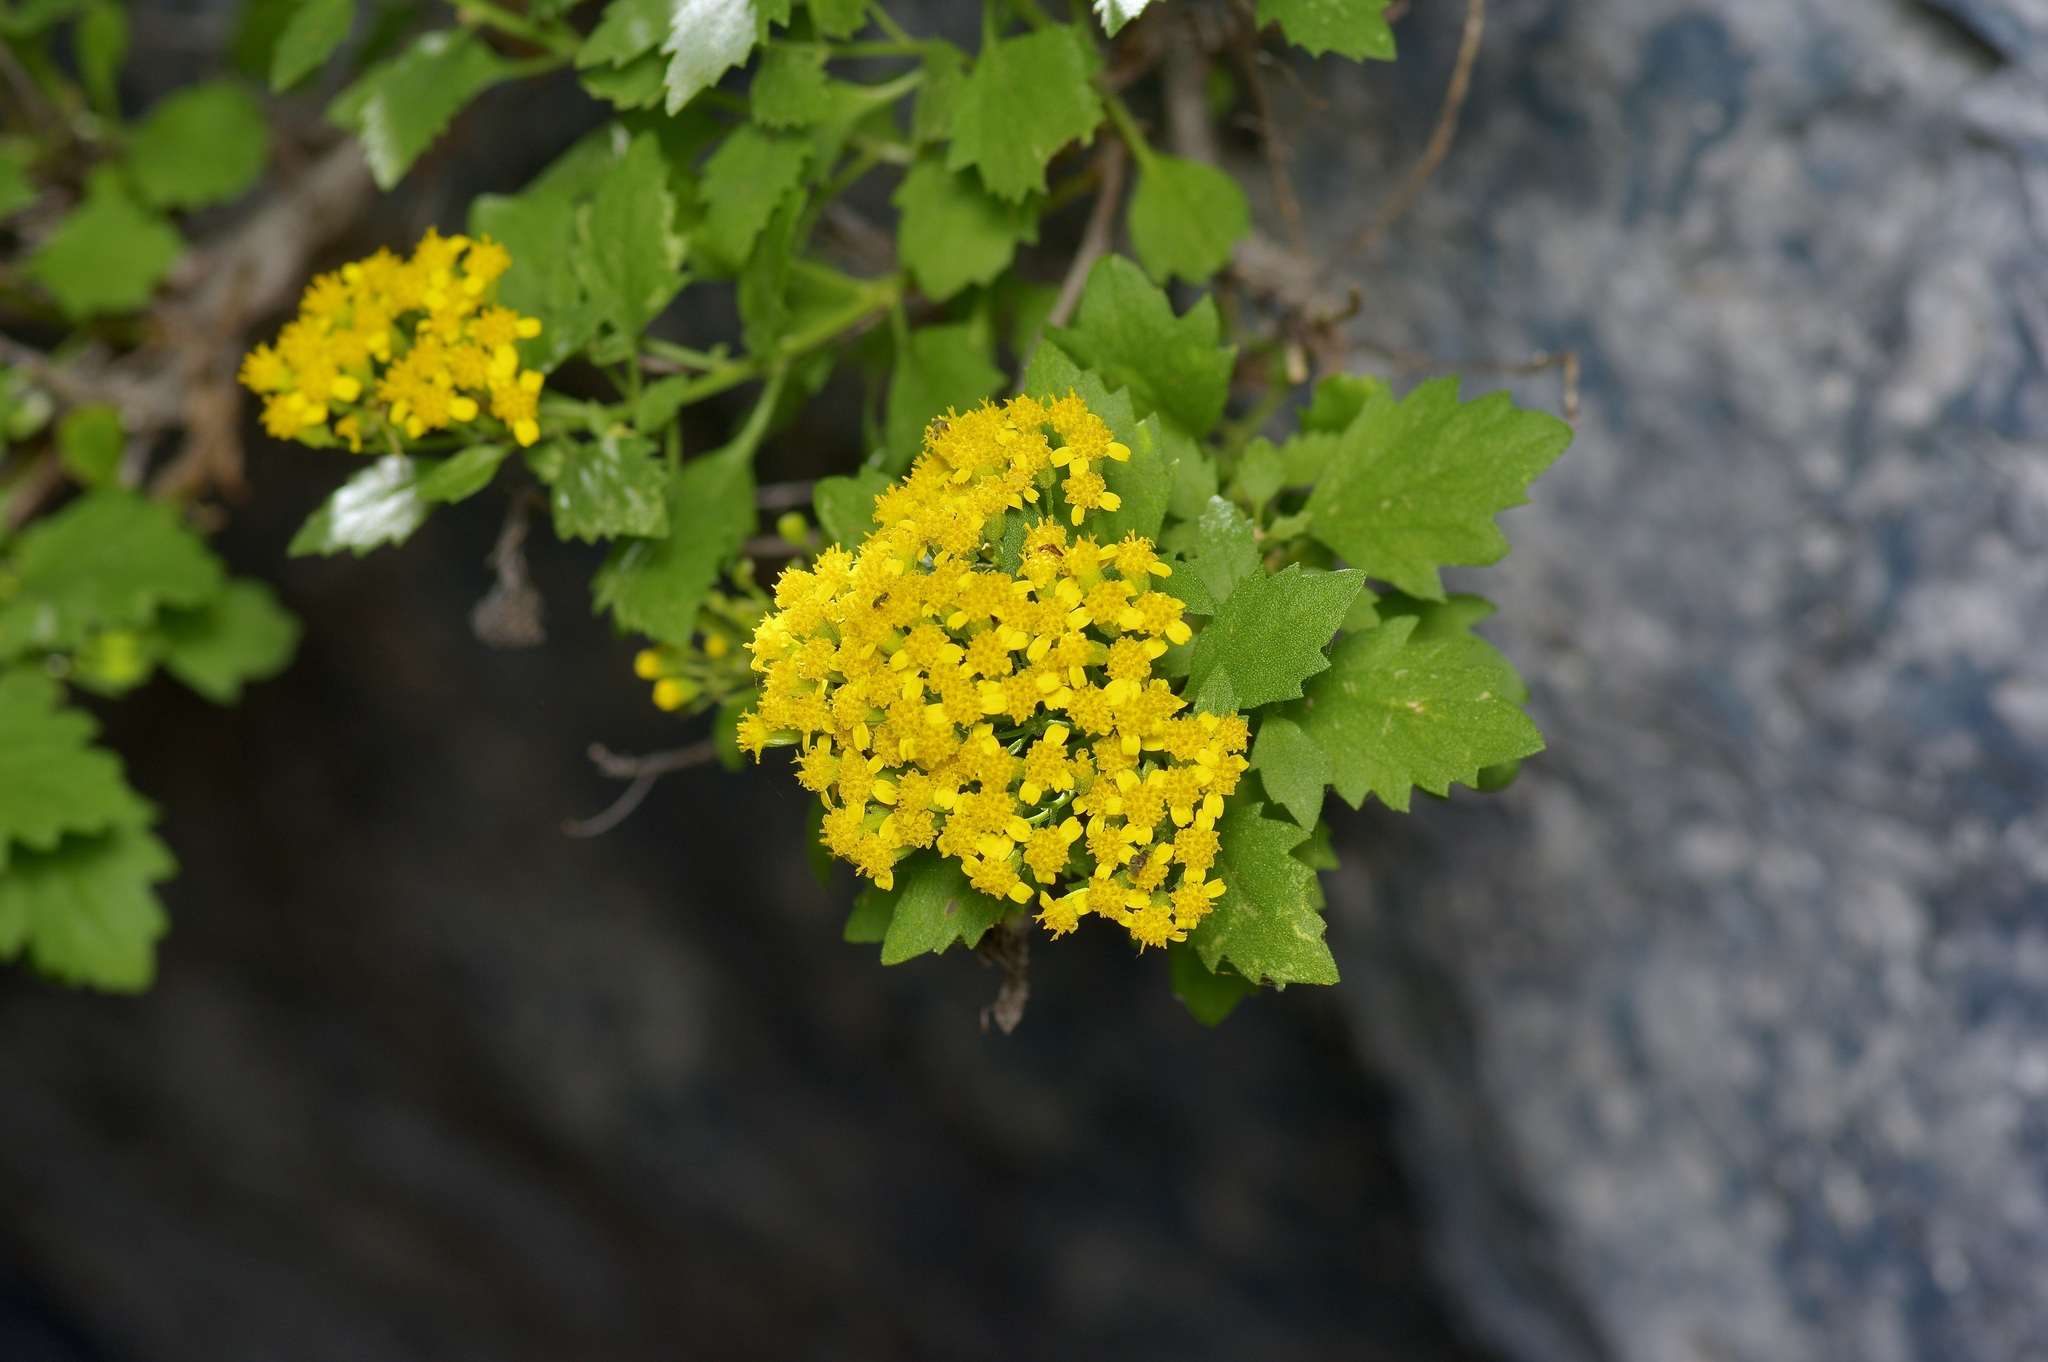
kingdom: Plantae
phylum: Tracheophyta
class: Magnoliopsida
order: Asterales
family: Asteraceae
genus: Laphamia
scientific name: Laphamia lindheimeri
